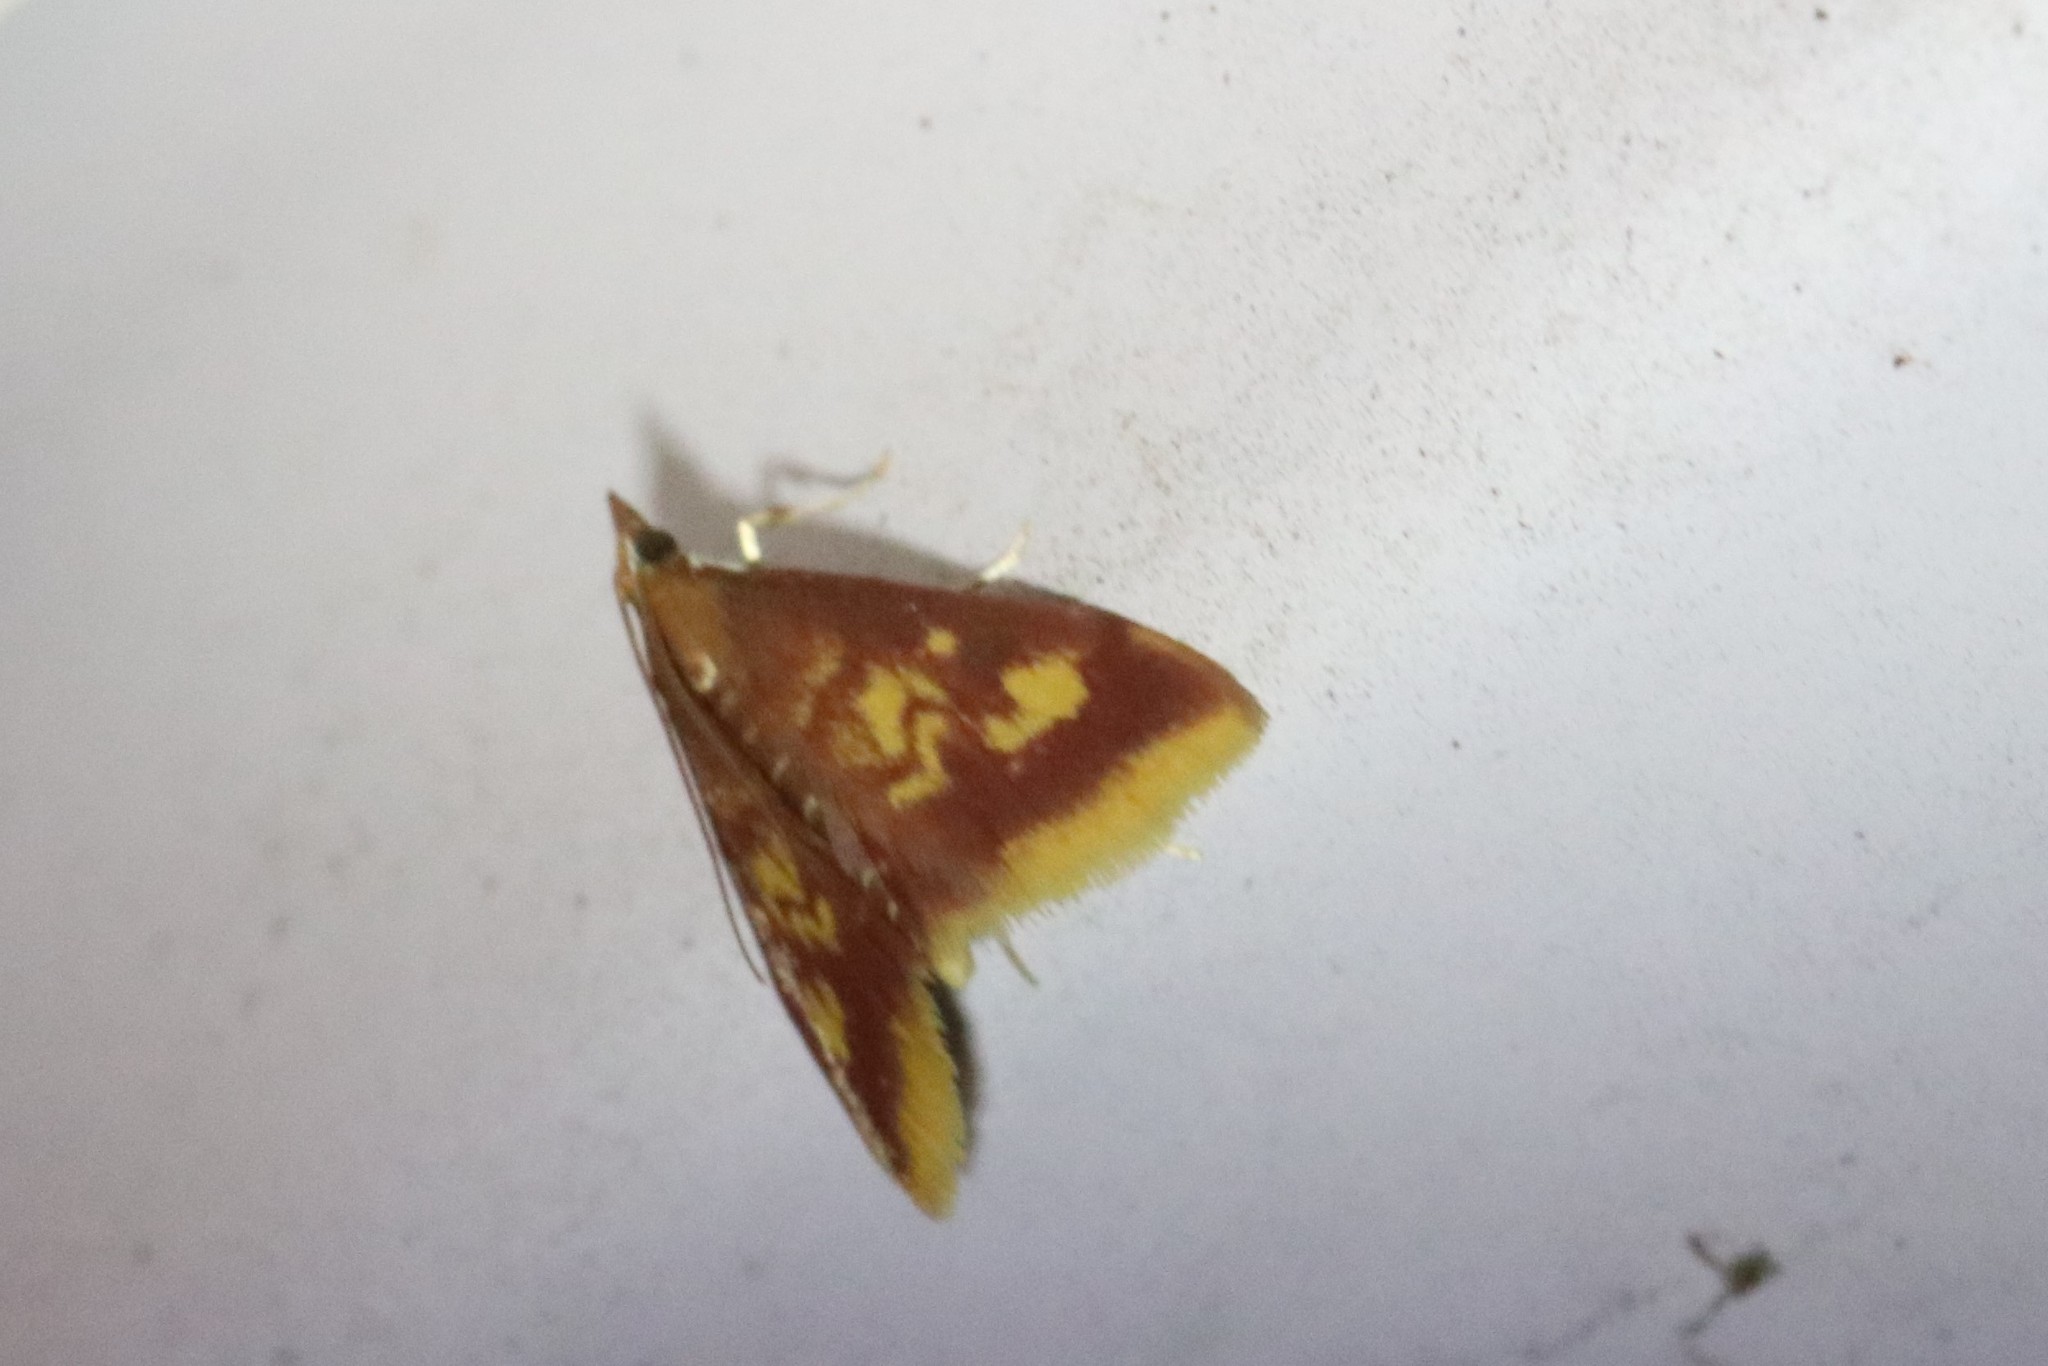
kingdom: Animalia
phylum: Arthropoda
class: Insecta
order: Lepidoptera
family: Crambidae
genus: Pyrausta
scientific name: Pyrausta acrionalis
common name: Mint-loving pyrausta moth
